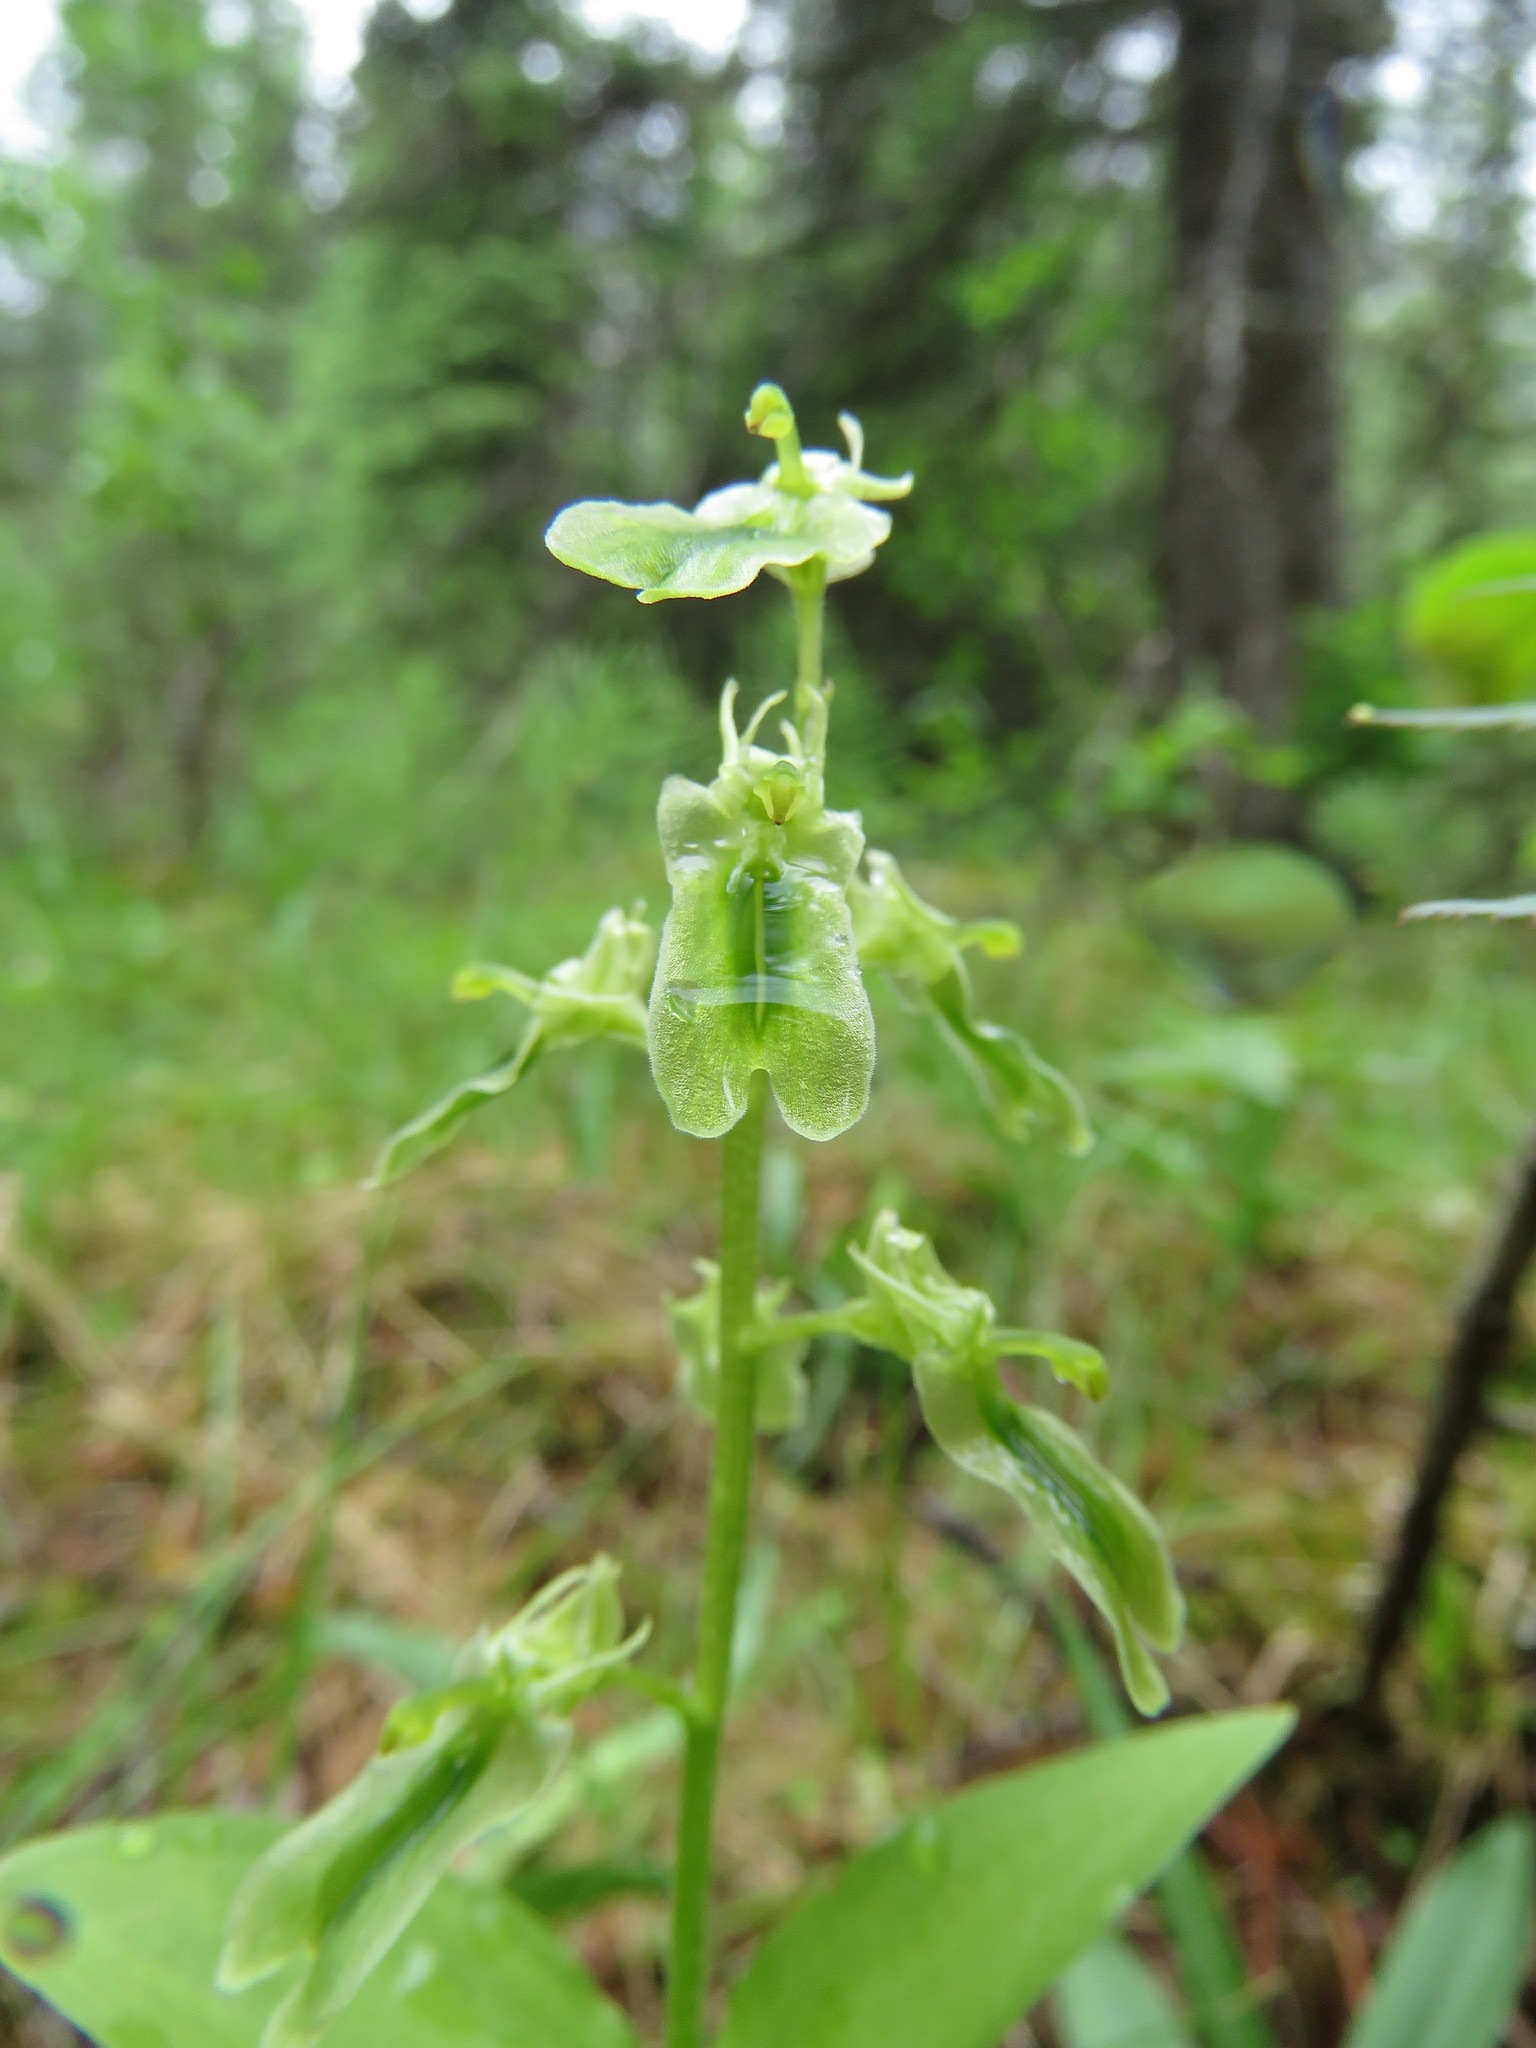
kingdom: Plantae
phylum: Tracheophyta
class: Liliopsida
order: Asparagales
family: Orchidaceae
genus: Neottia
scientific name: Neottia borealis
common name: Northern twayblade
